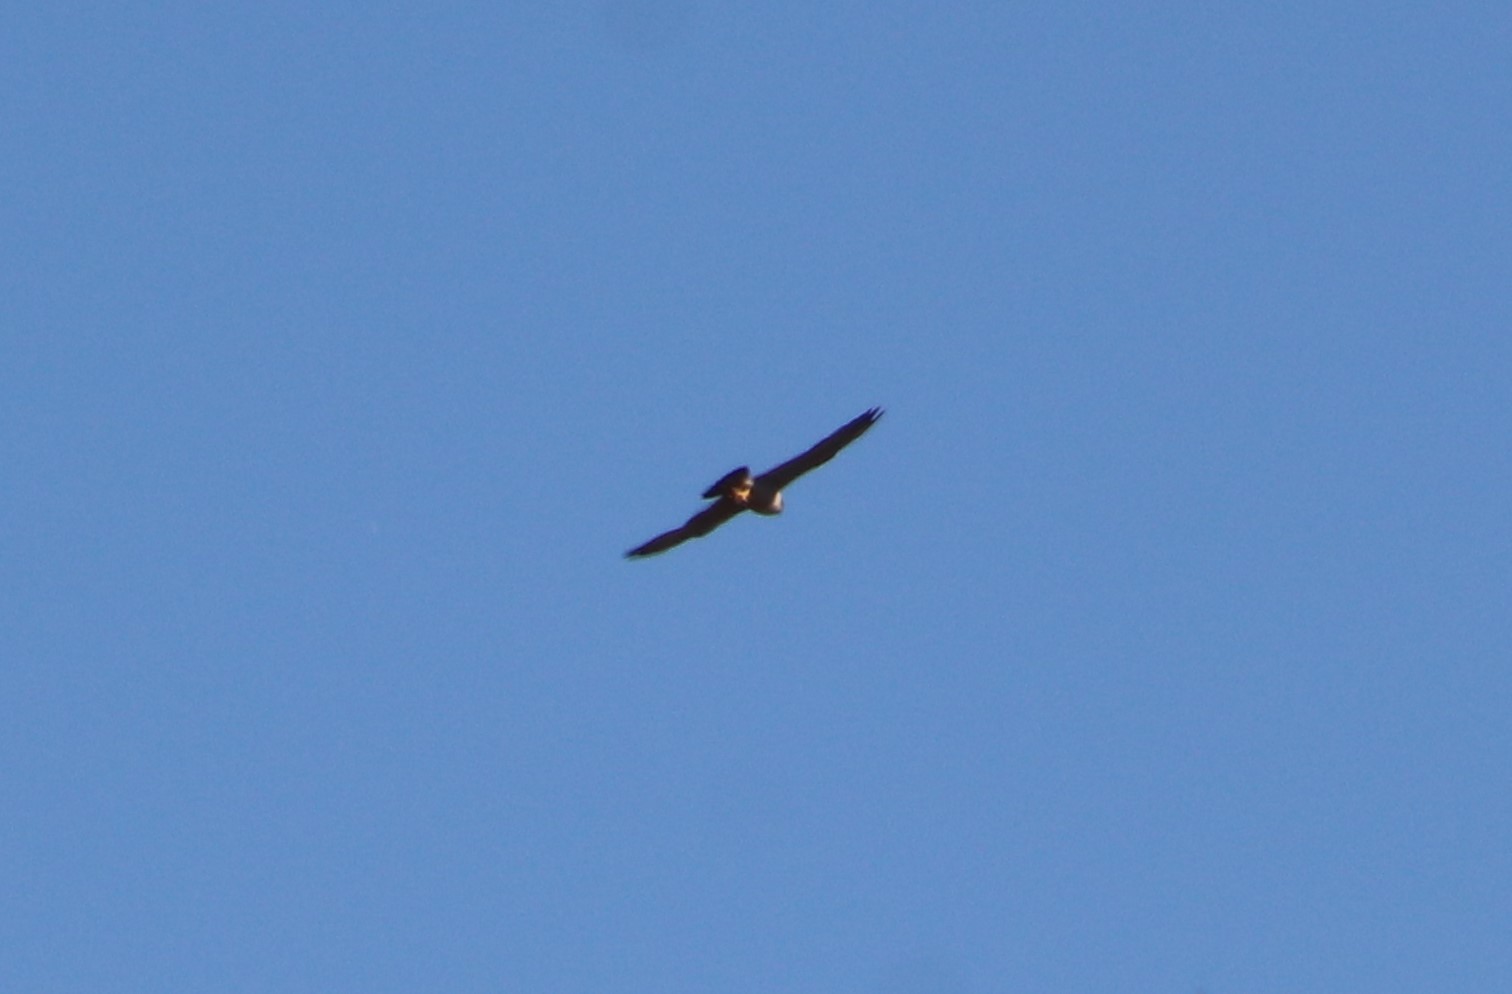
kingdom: Animalia
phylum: Chordata
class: Aves
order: Falconiformes
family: Falconidae
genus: Falco
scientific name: Falco peregrinus
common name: Peregrine falcon
